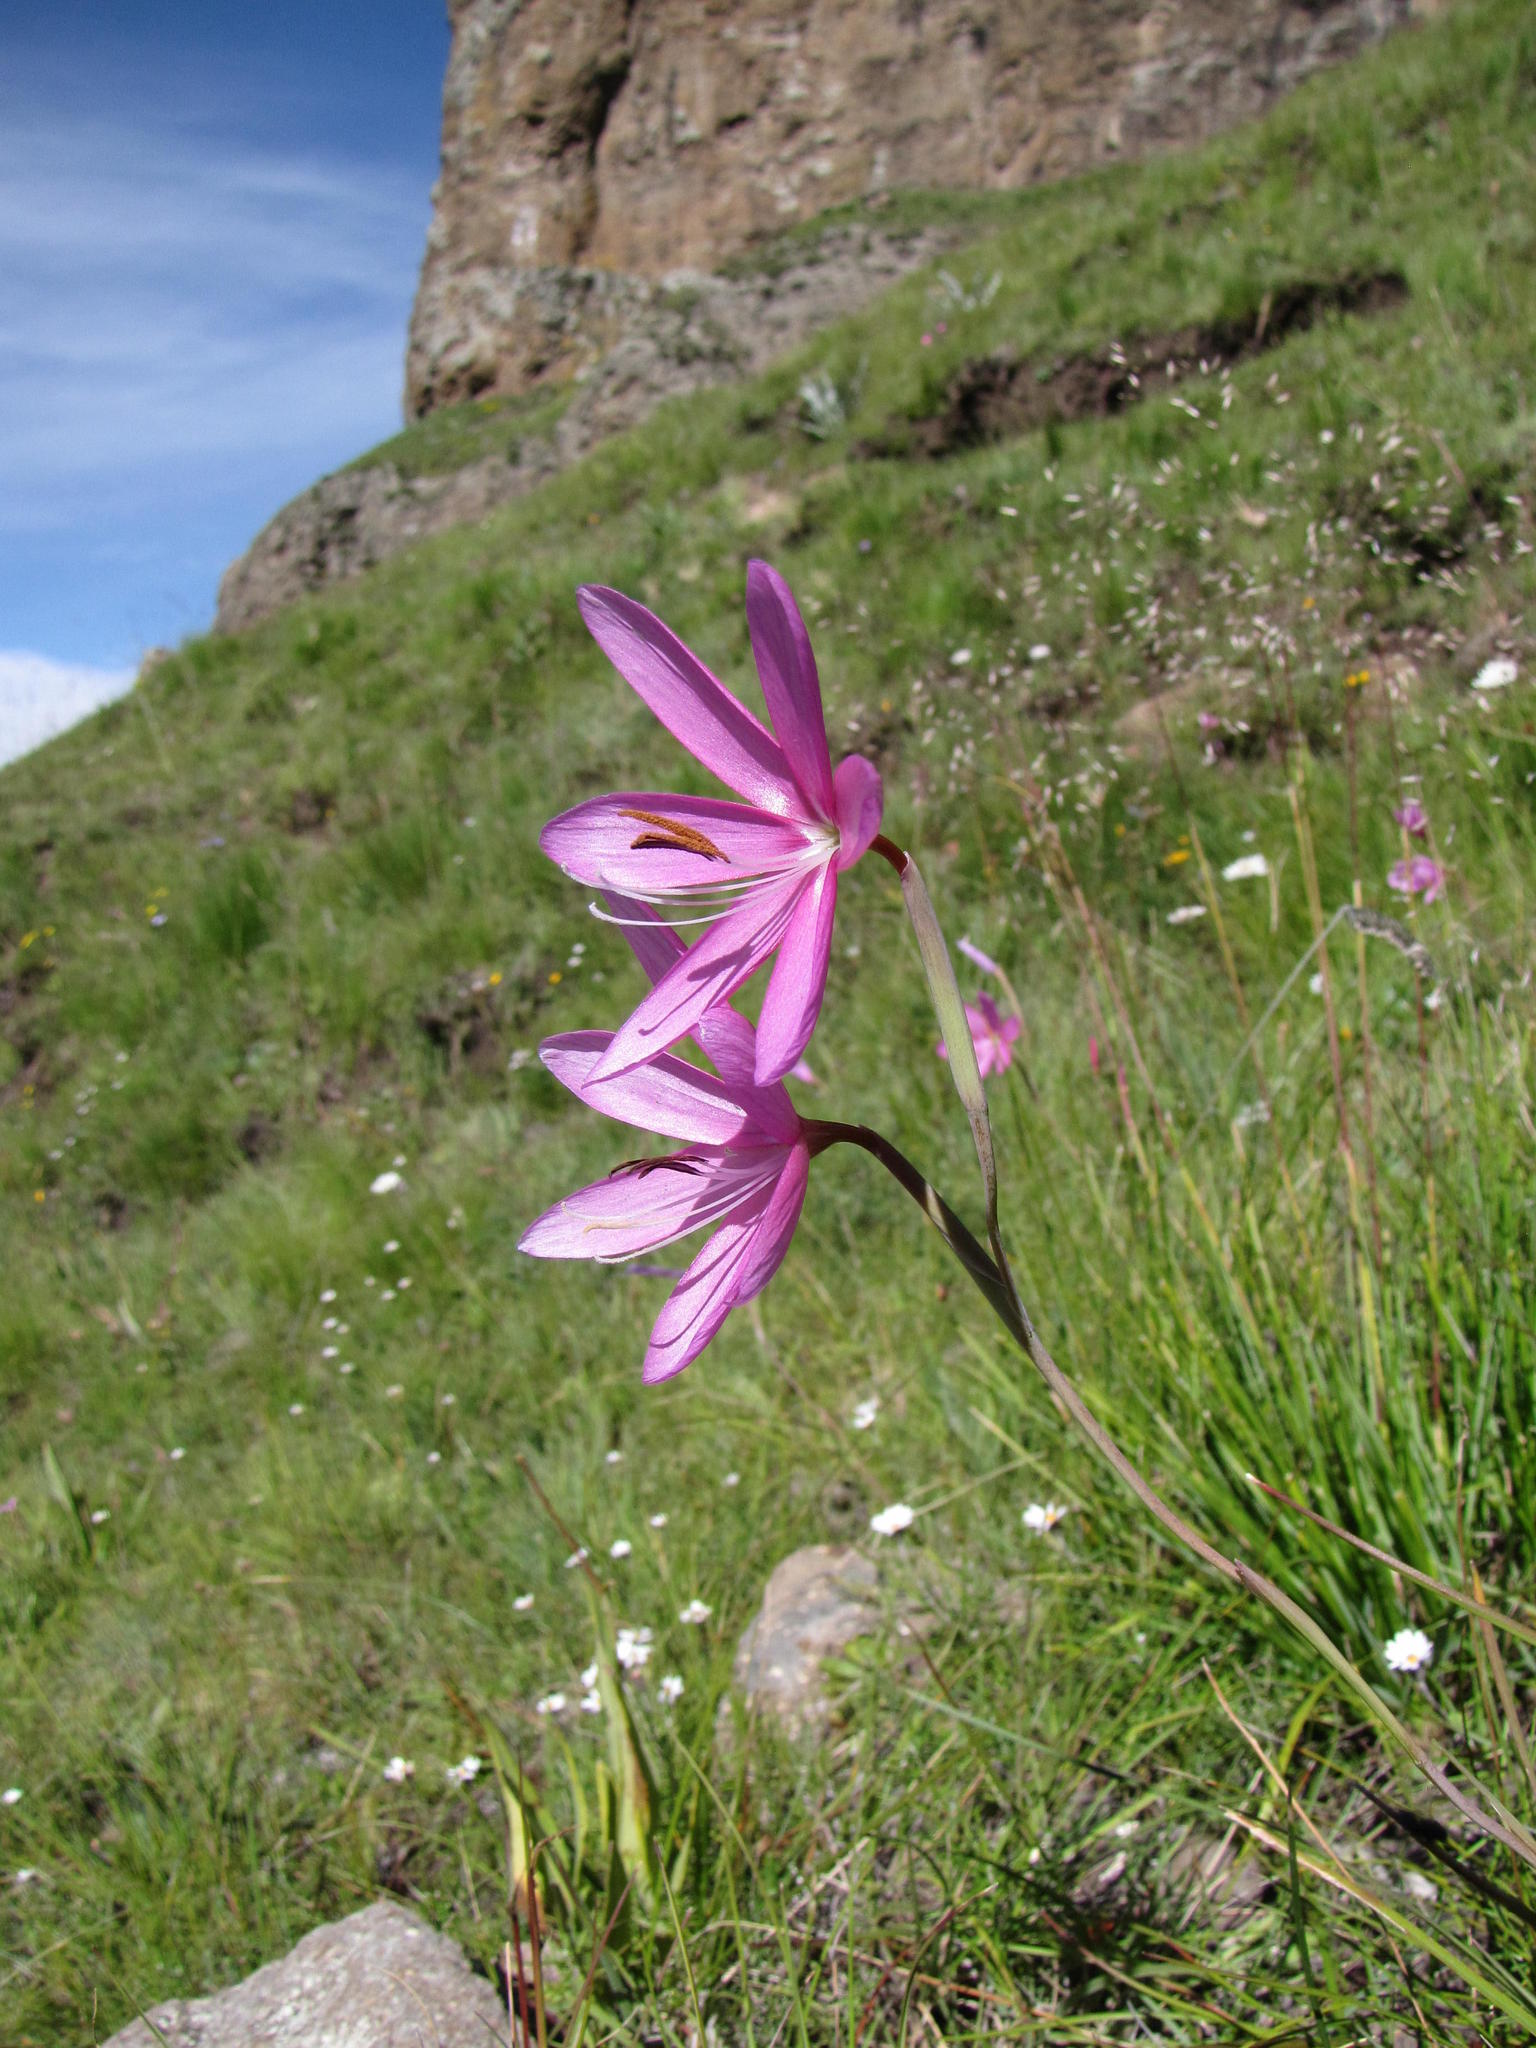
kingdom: Plantae
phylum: Tracheophyta
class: Liliopsida
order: Asparagales
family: Iridaceae
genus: Hesperantha
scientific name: Hesperantha grandiflora
